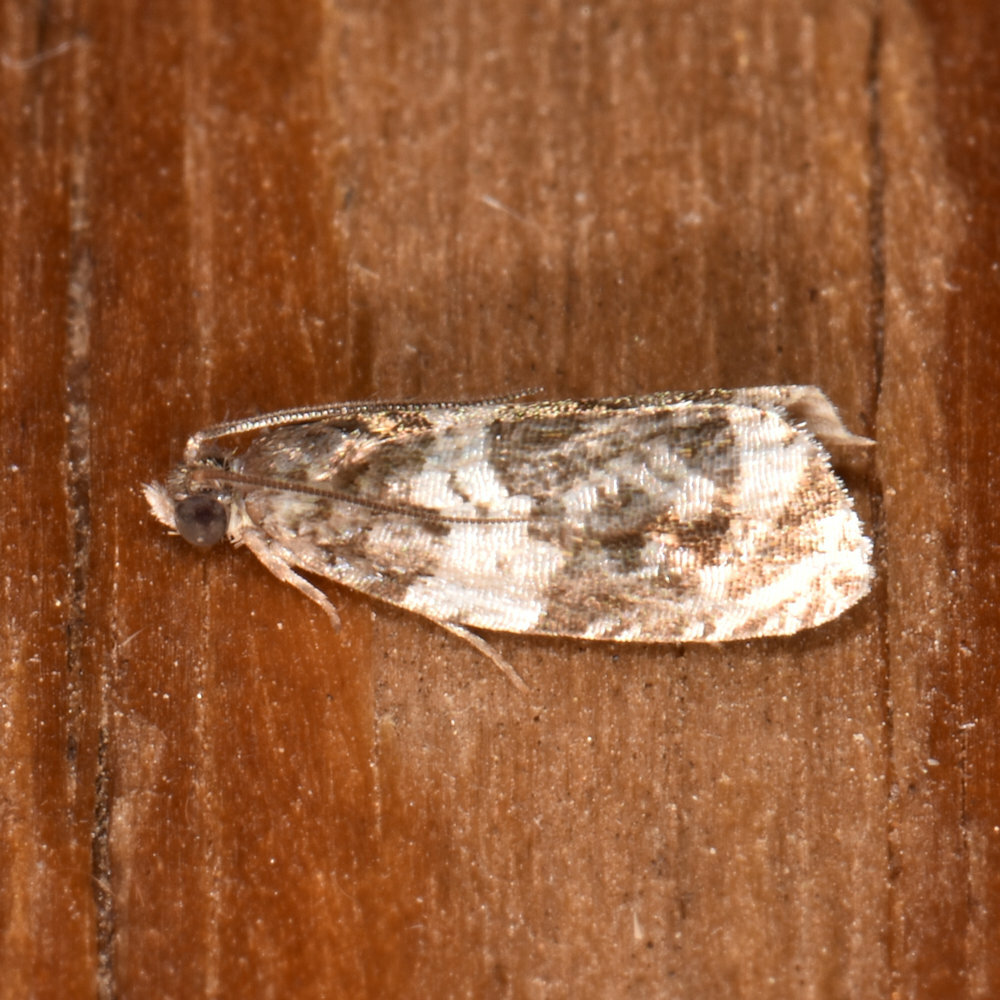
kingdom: Animalia
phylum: Arthropoda
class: Insecta
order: Lepidoptera
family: Tortricidae
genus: Olethreutes
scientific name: Olethreutes fasciatana
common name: Banded olethreutes moth
